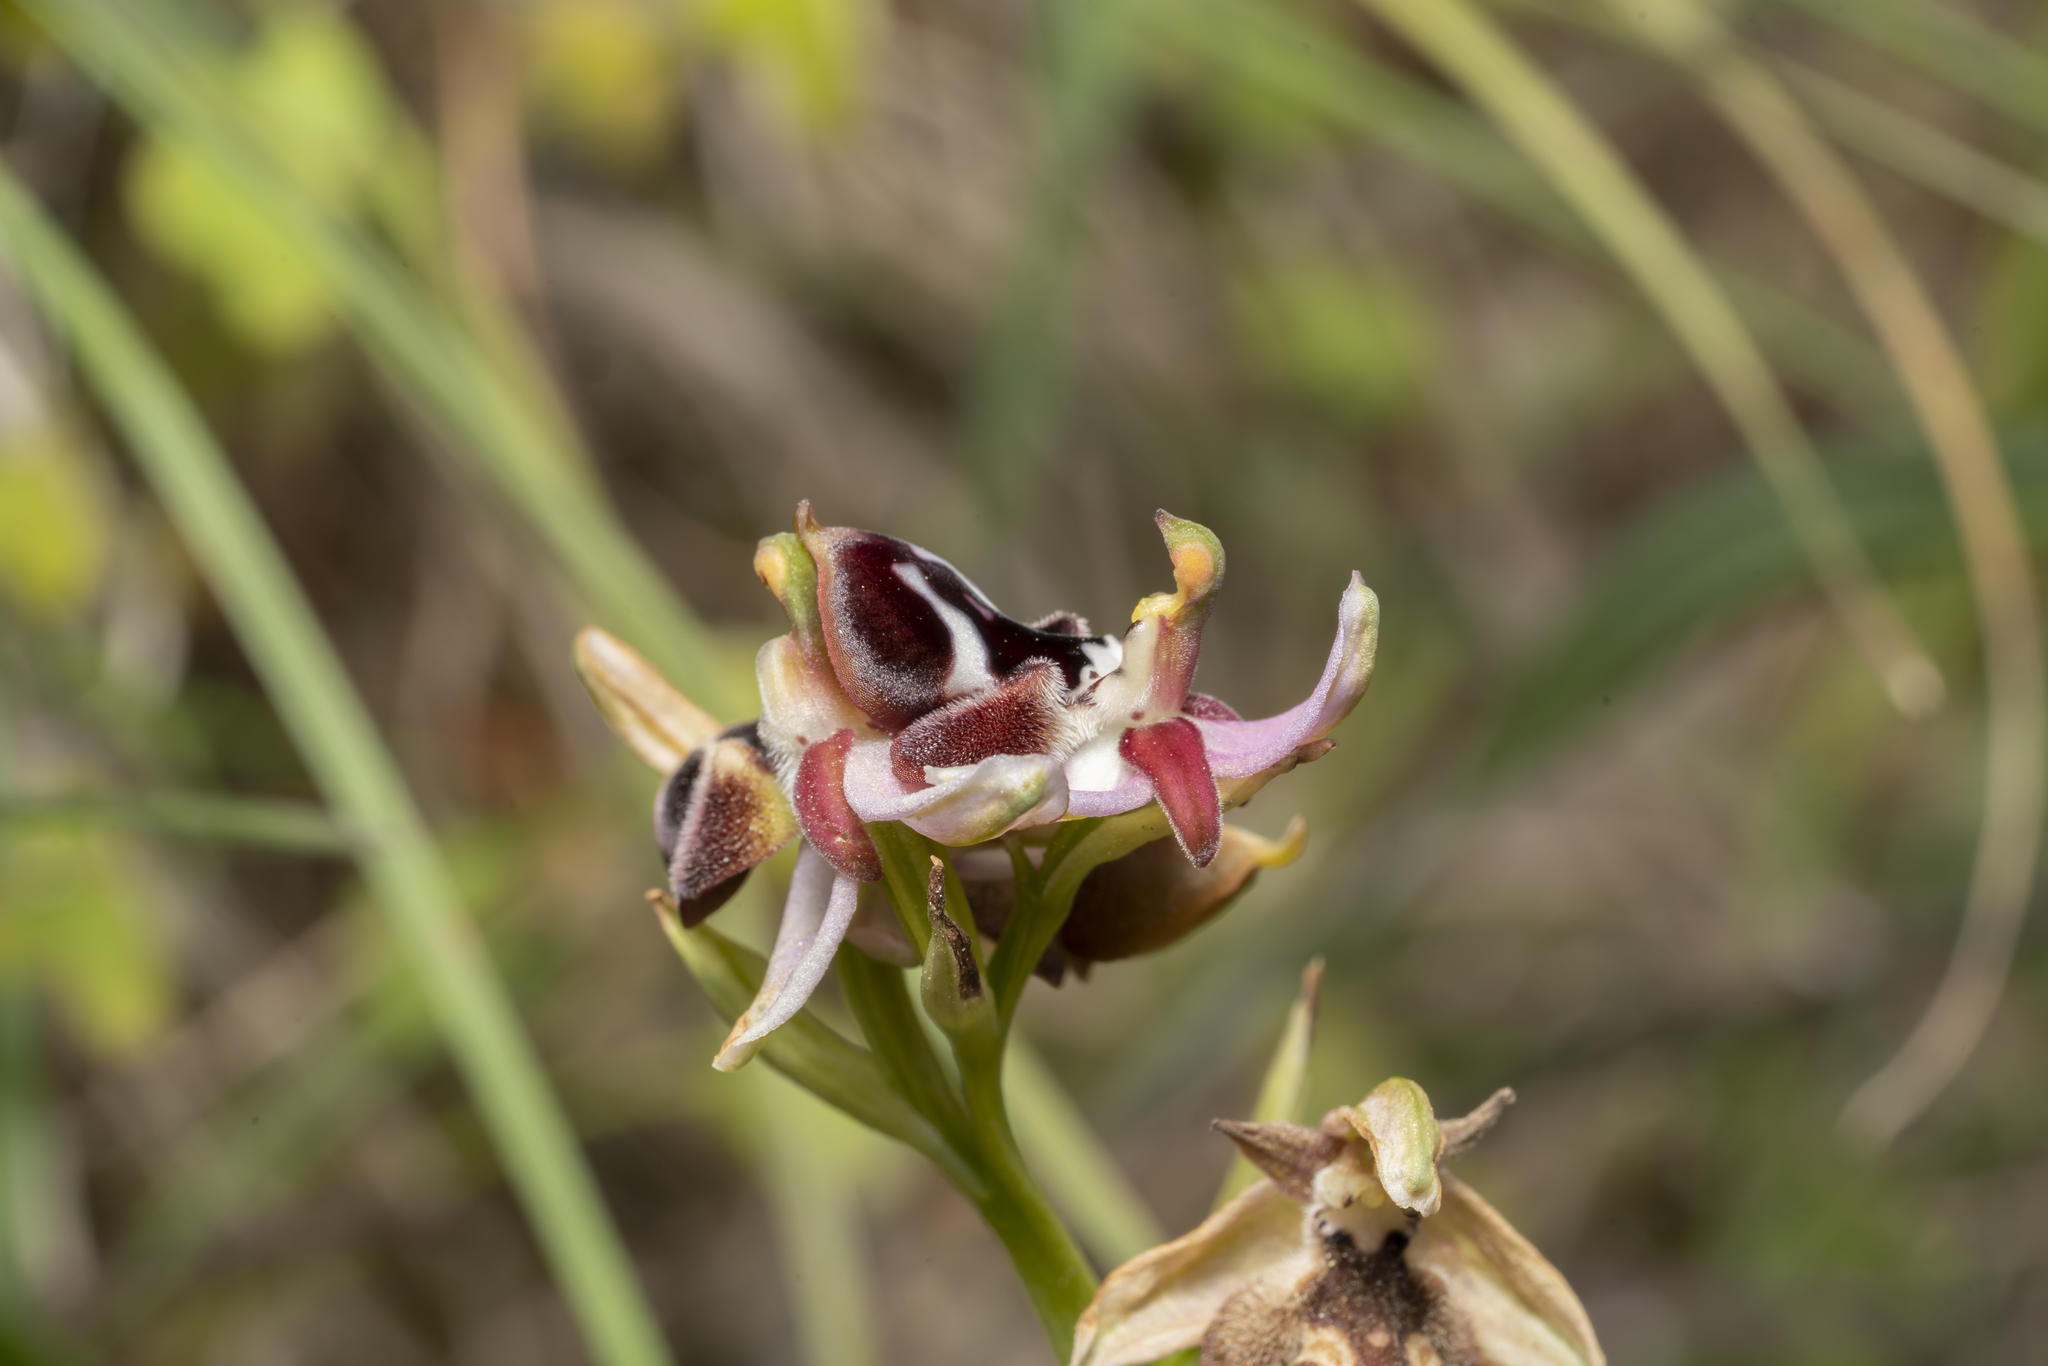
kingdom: Plantae
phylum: Tracheophyta
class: Liliopsida
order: Asparagales
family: Orchidaceae
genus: Ophrys
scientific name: Ophrys reinholdii
